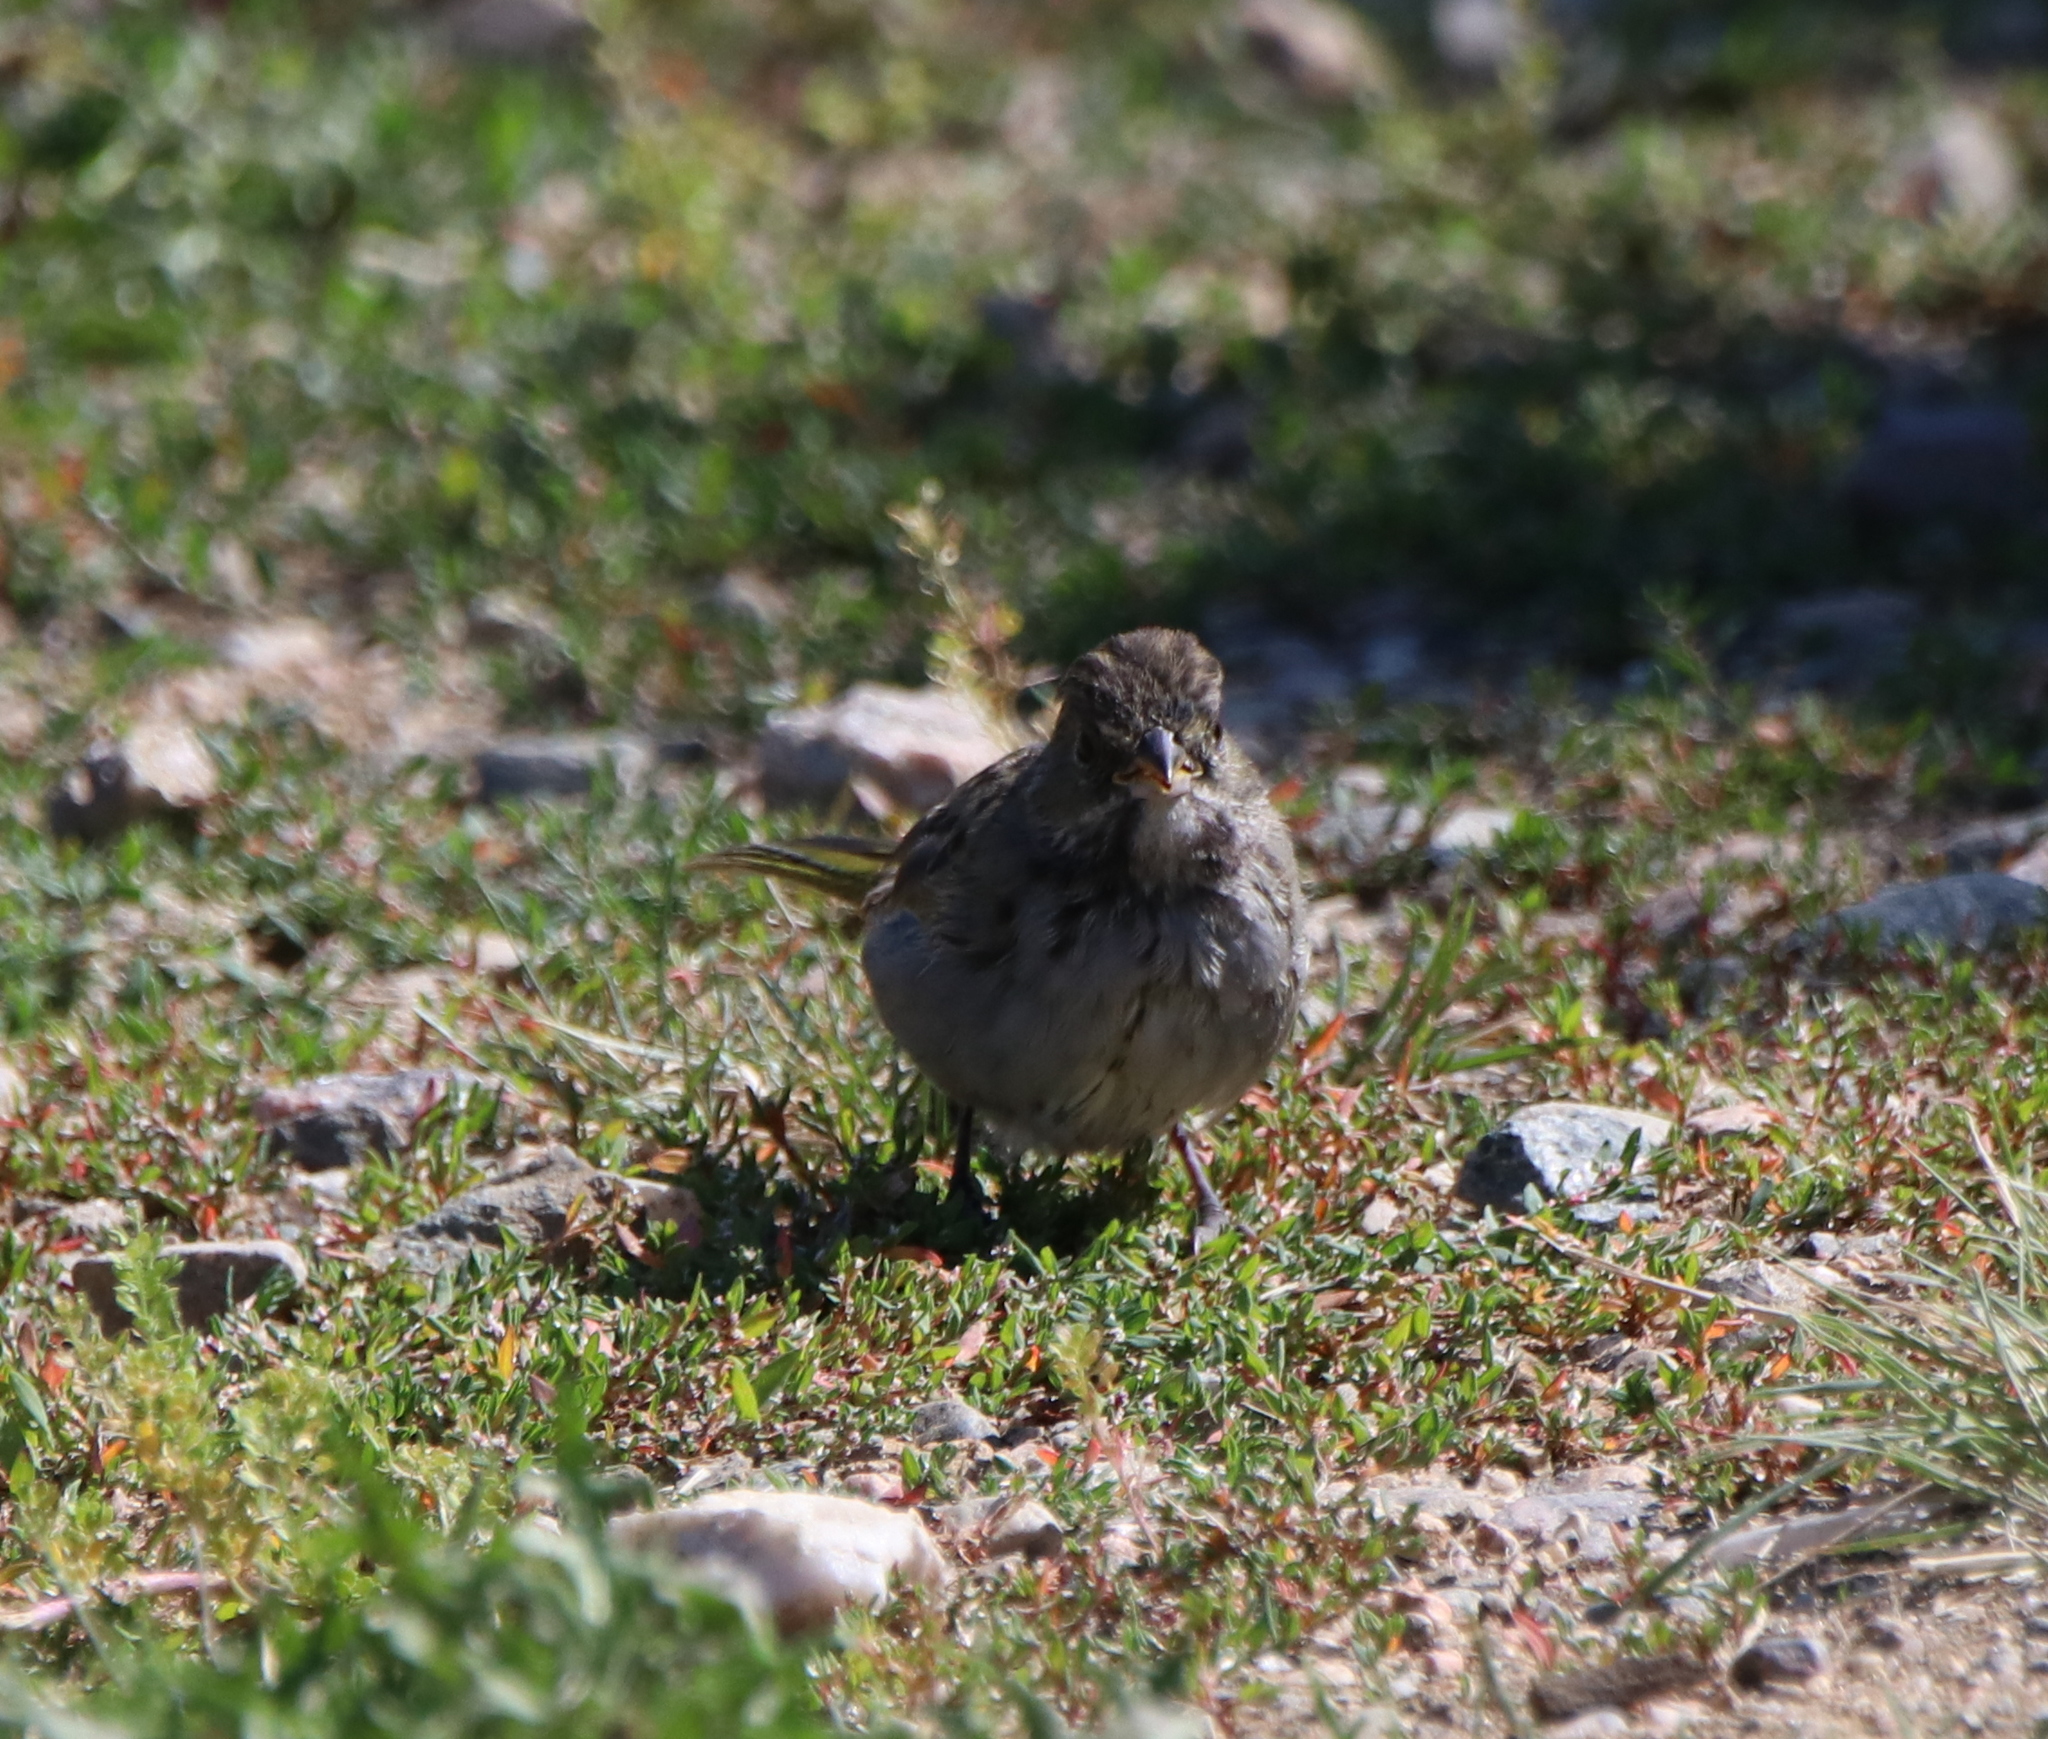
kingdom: Animalia
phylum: Chordata
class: Aves
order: Passeriformes
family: Passerellidae
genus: Pipilo
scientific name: Pipilo chlorurus
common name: Green-tailed towhee
